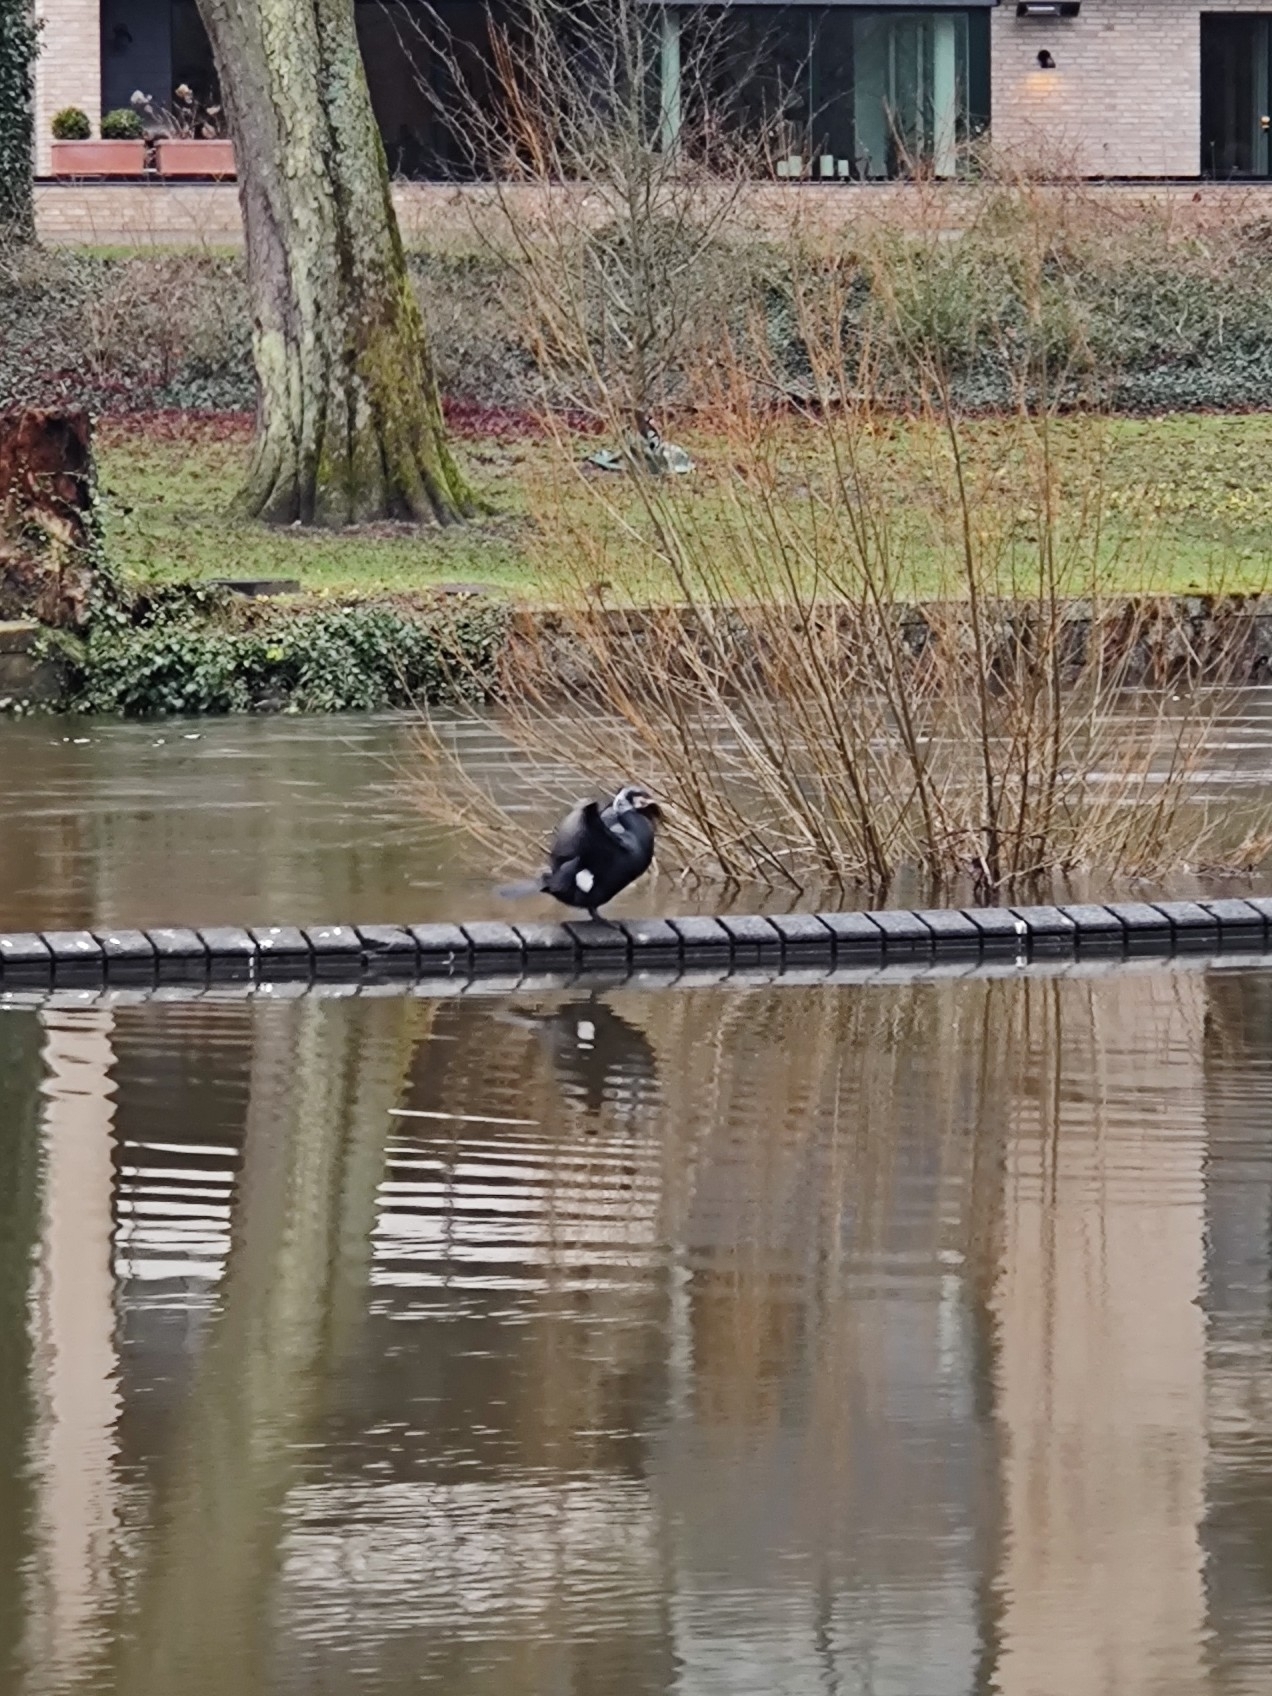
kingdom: Animalia
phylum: Chordata
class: Aves
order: Suliformes
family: Phalacrocoracidae
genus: Phalacrocorax
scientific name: Phalacrocorax carbo
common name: Great cormorant
